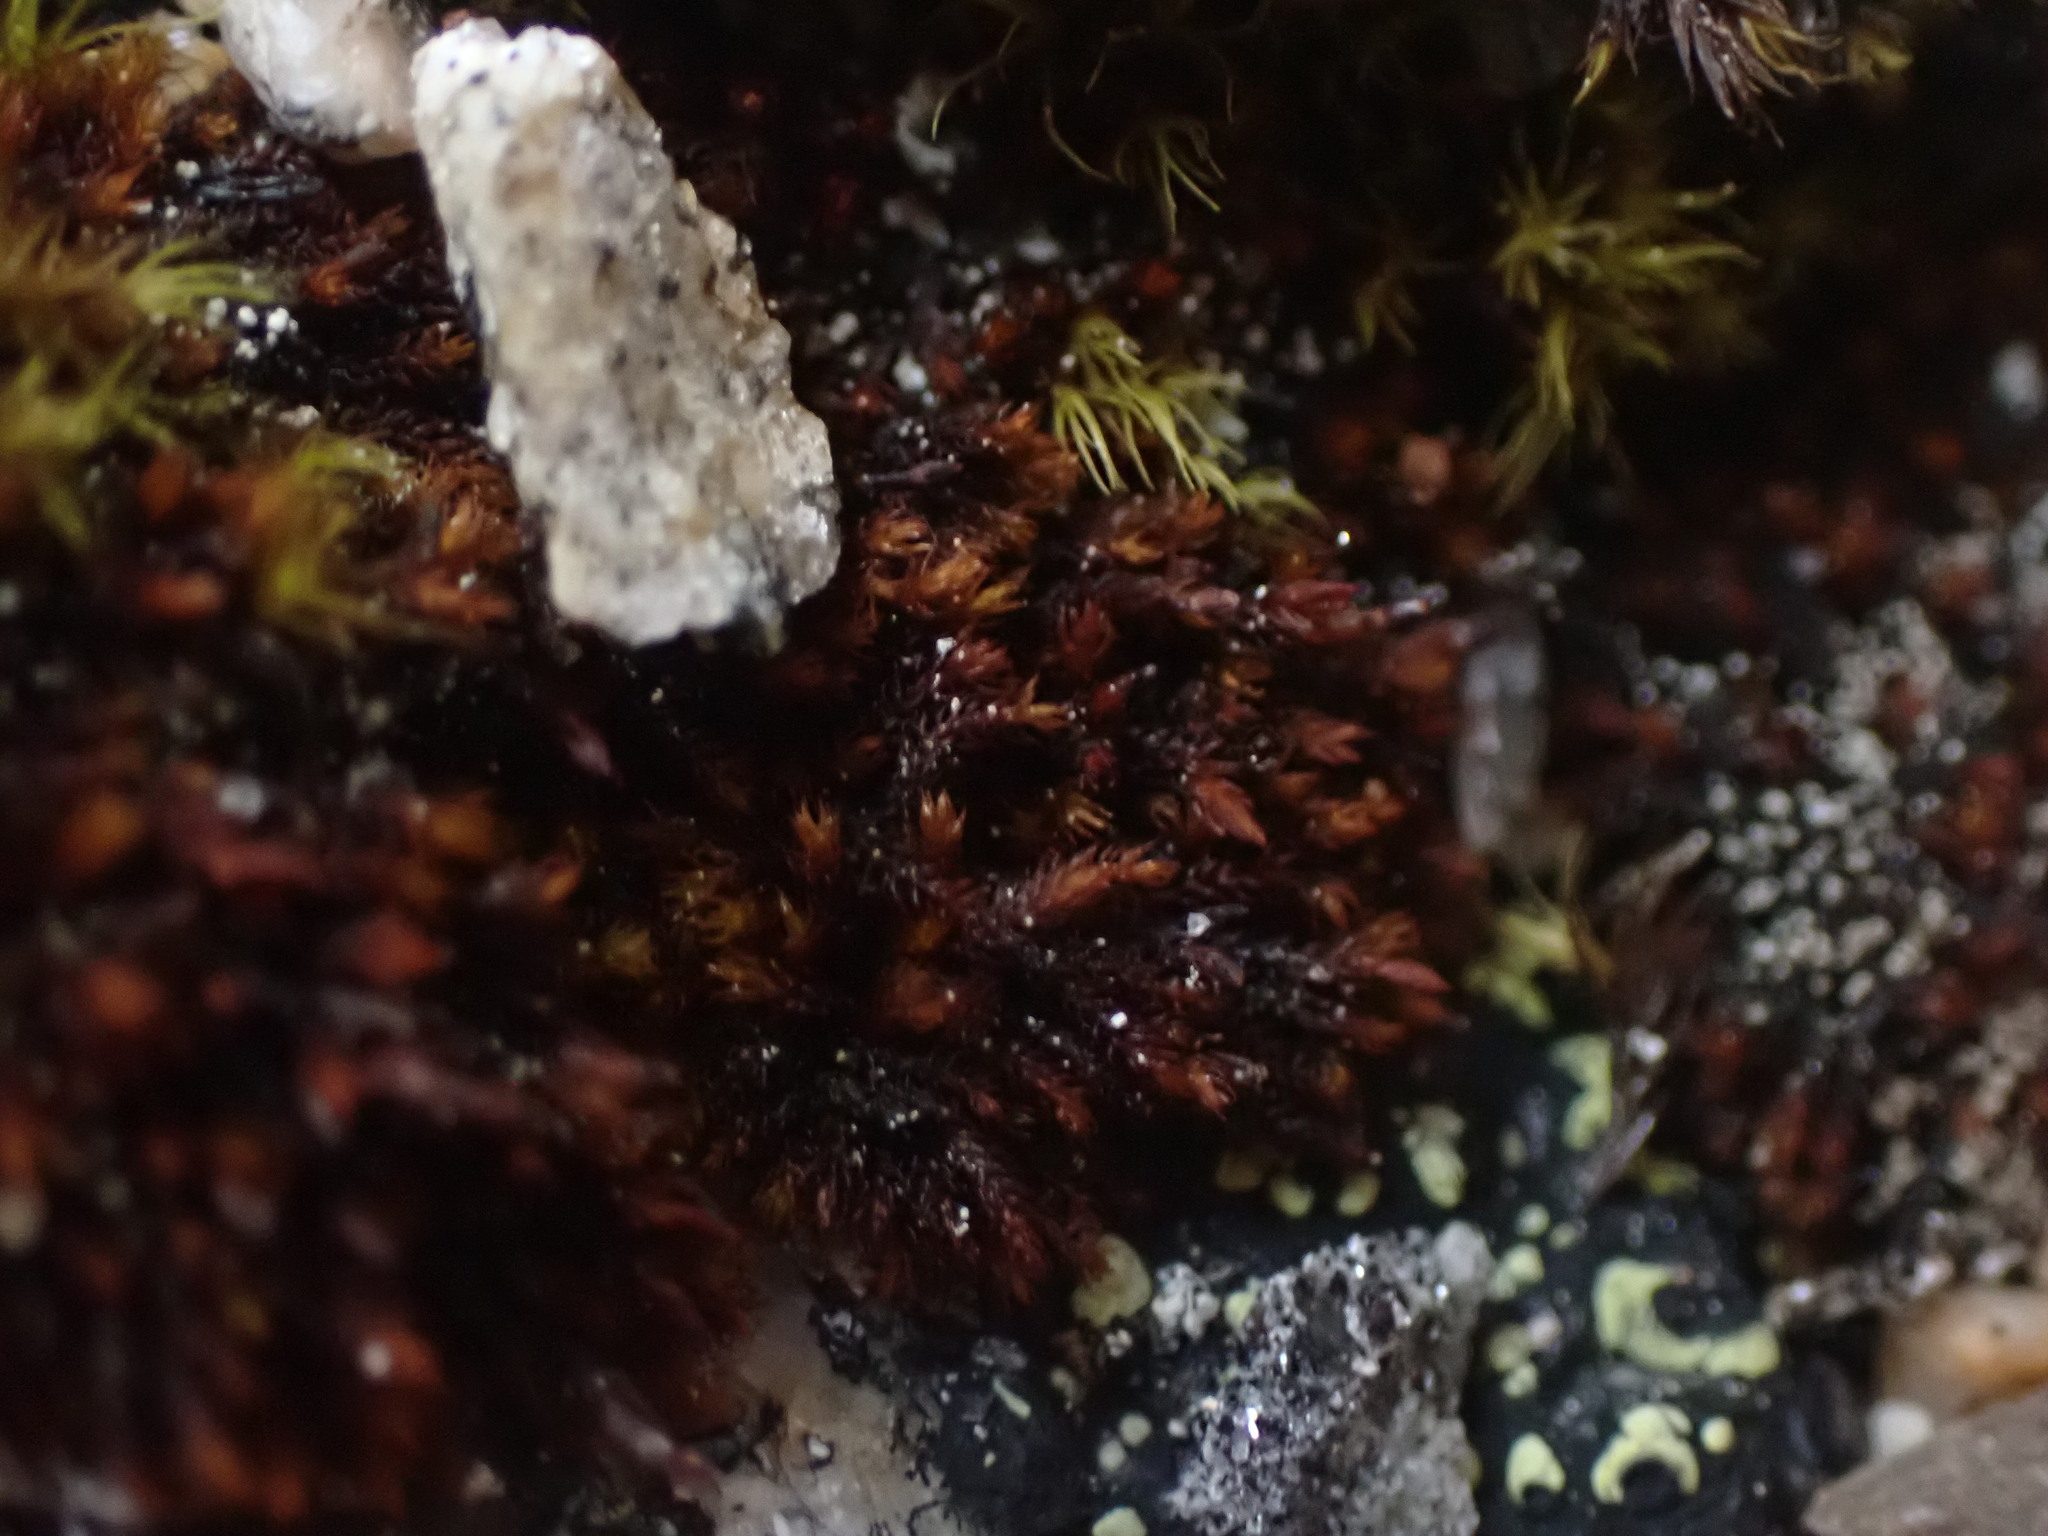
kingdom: Plantae
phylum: Bryophyta
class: Andreaeopsida
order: Andreaeales
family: Andreaeaceae
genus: Andreaea
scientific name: Andreaea rupestris
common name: Black rock moss
